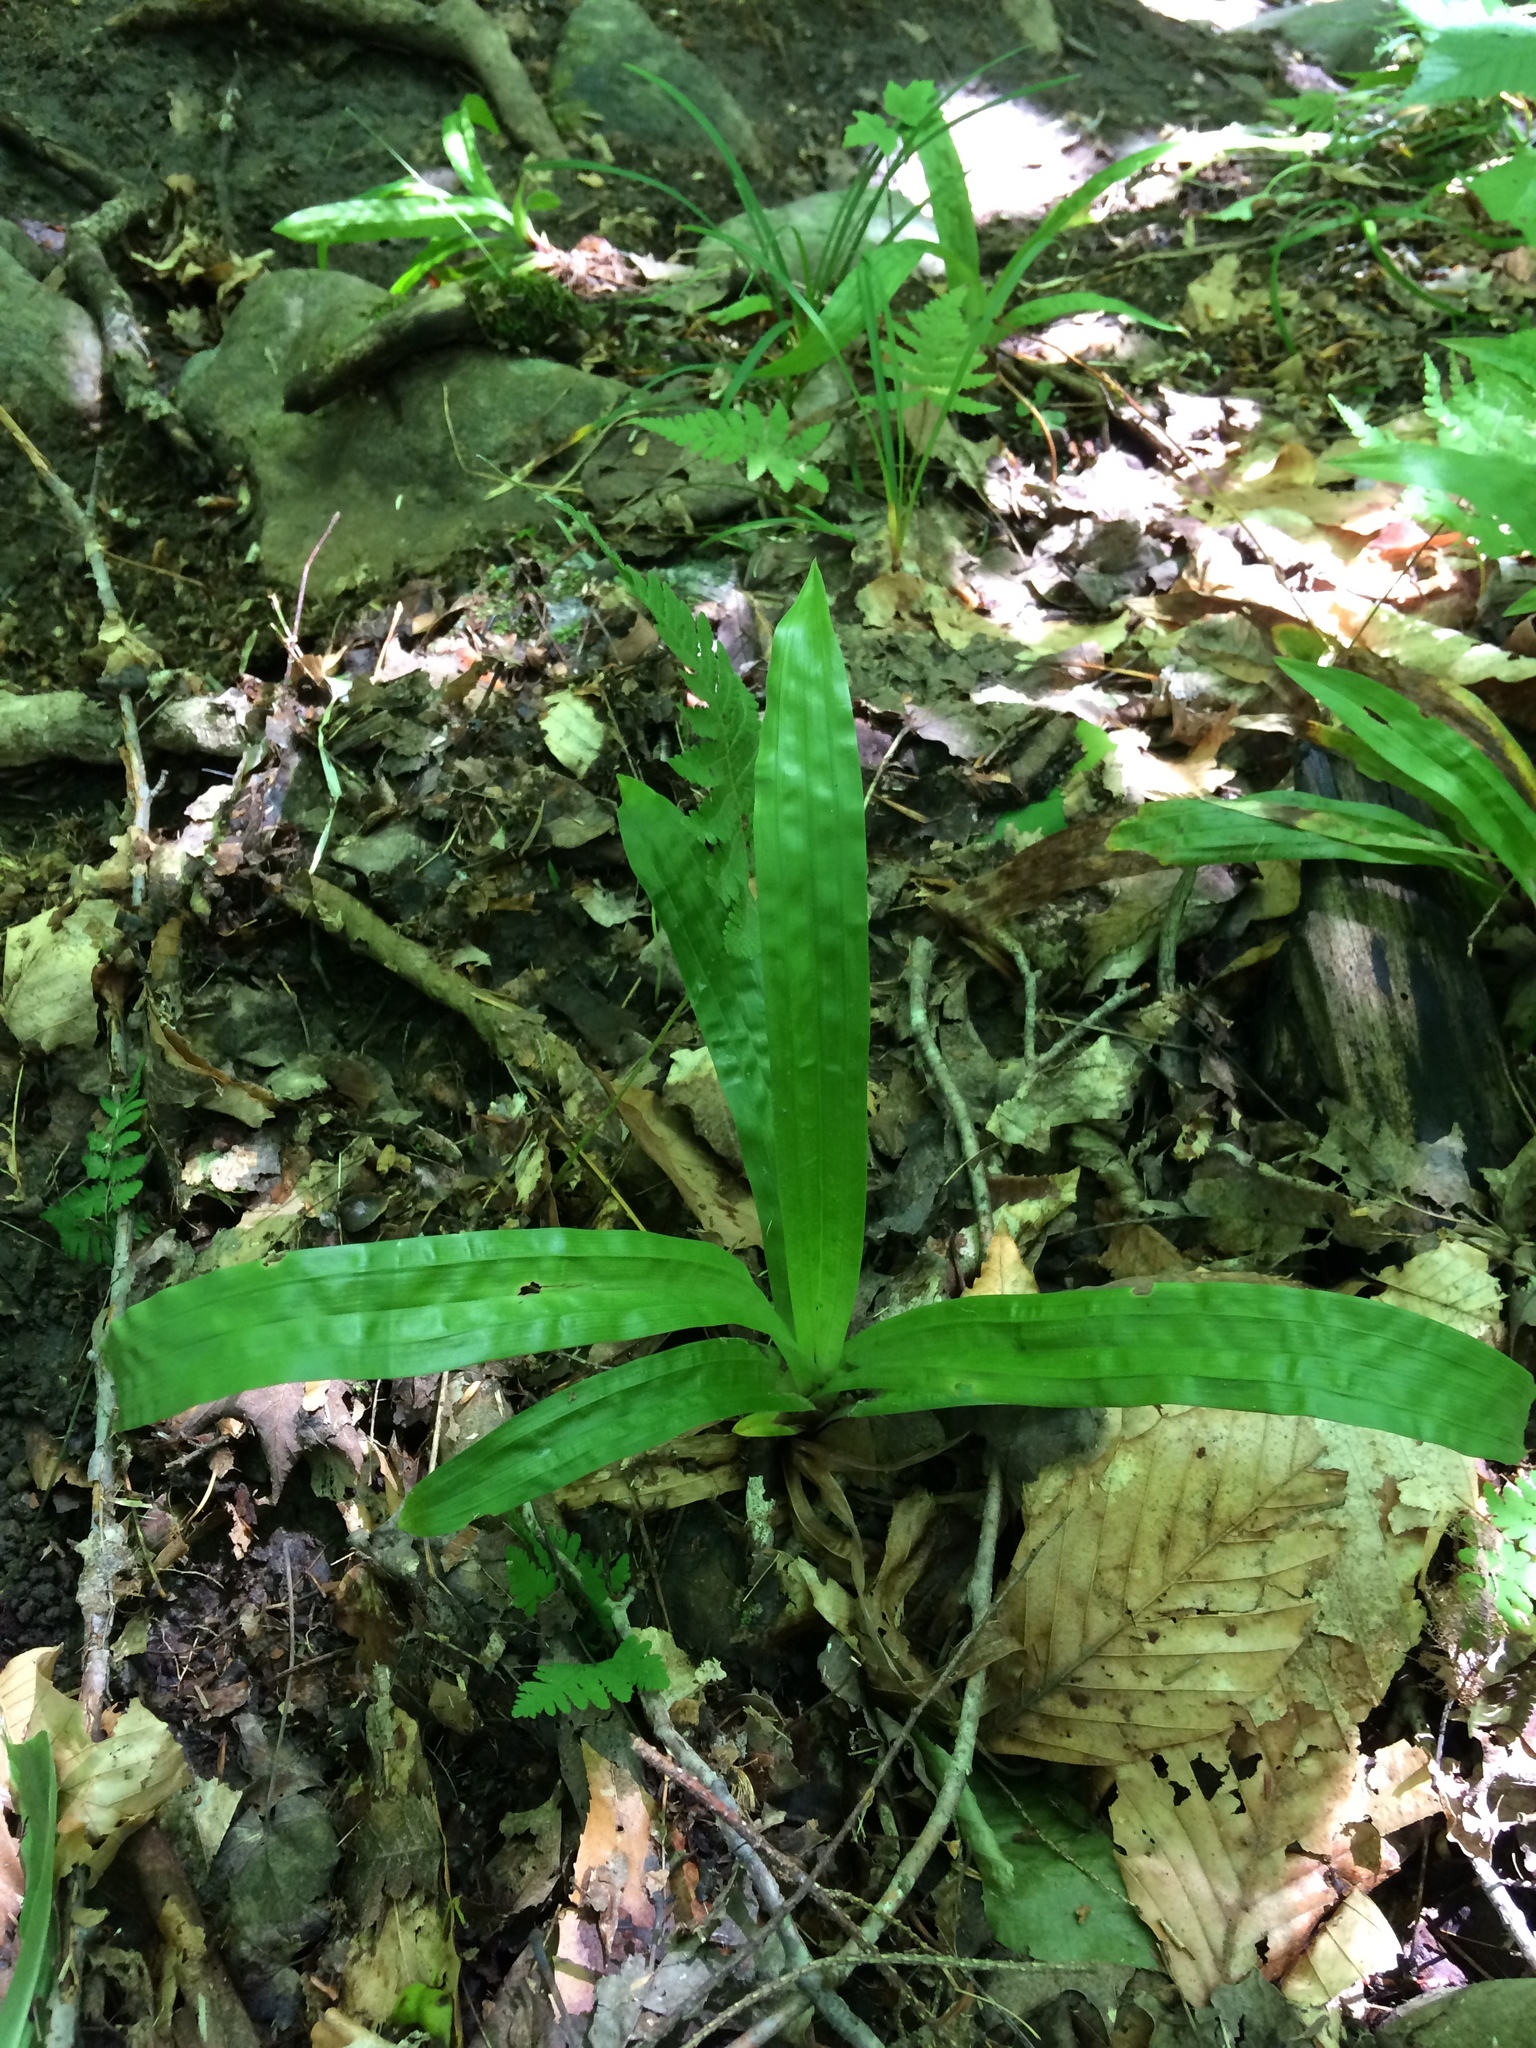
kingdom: Plantae
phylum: Tracheophyta
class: Liliopsida
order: Poales
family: Cyperaceae
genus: Carex
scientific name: Carex plantaginea
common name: Plantain-leaved sedge
